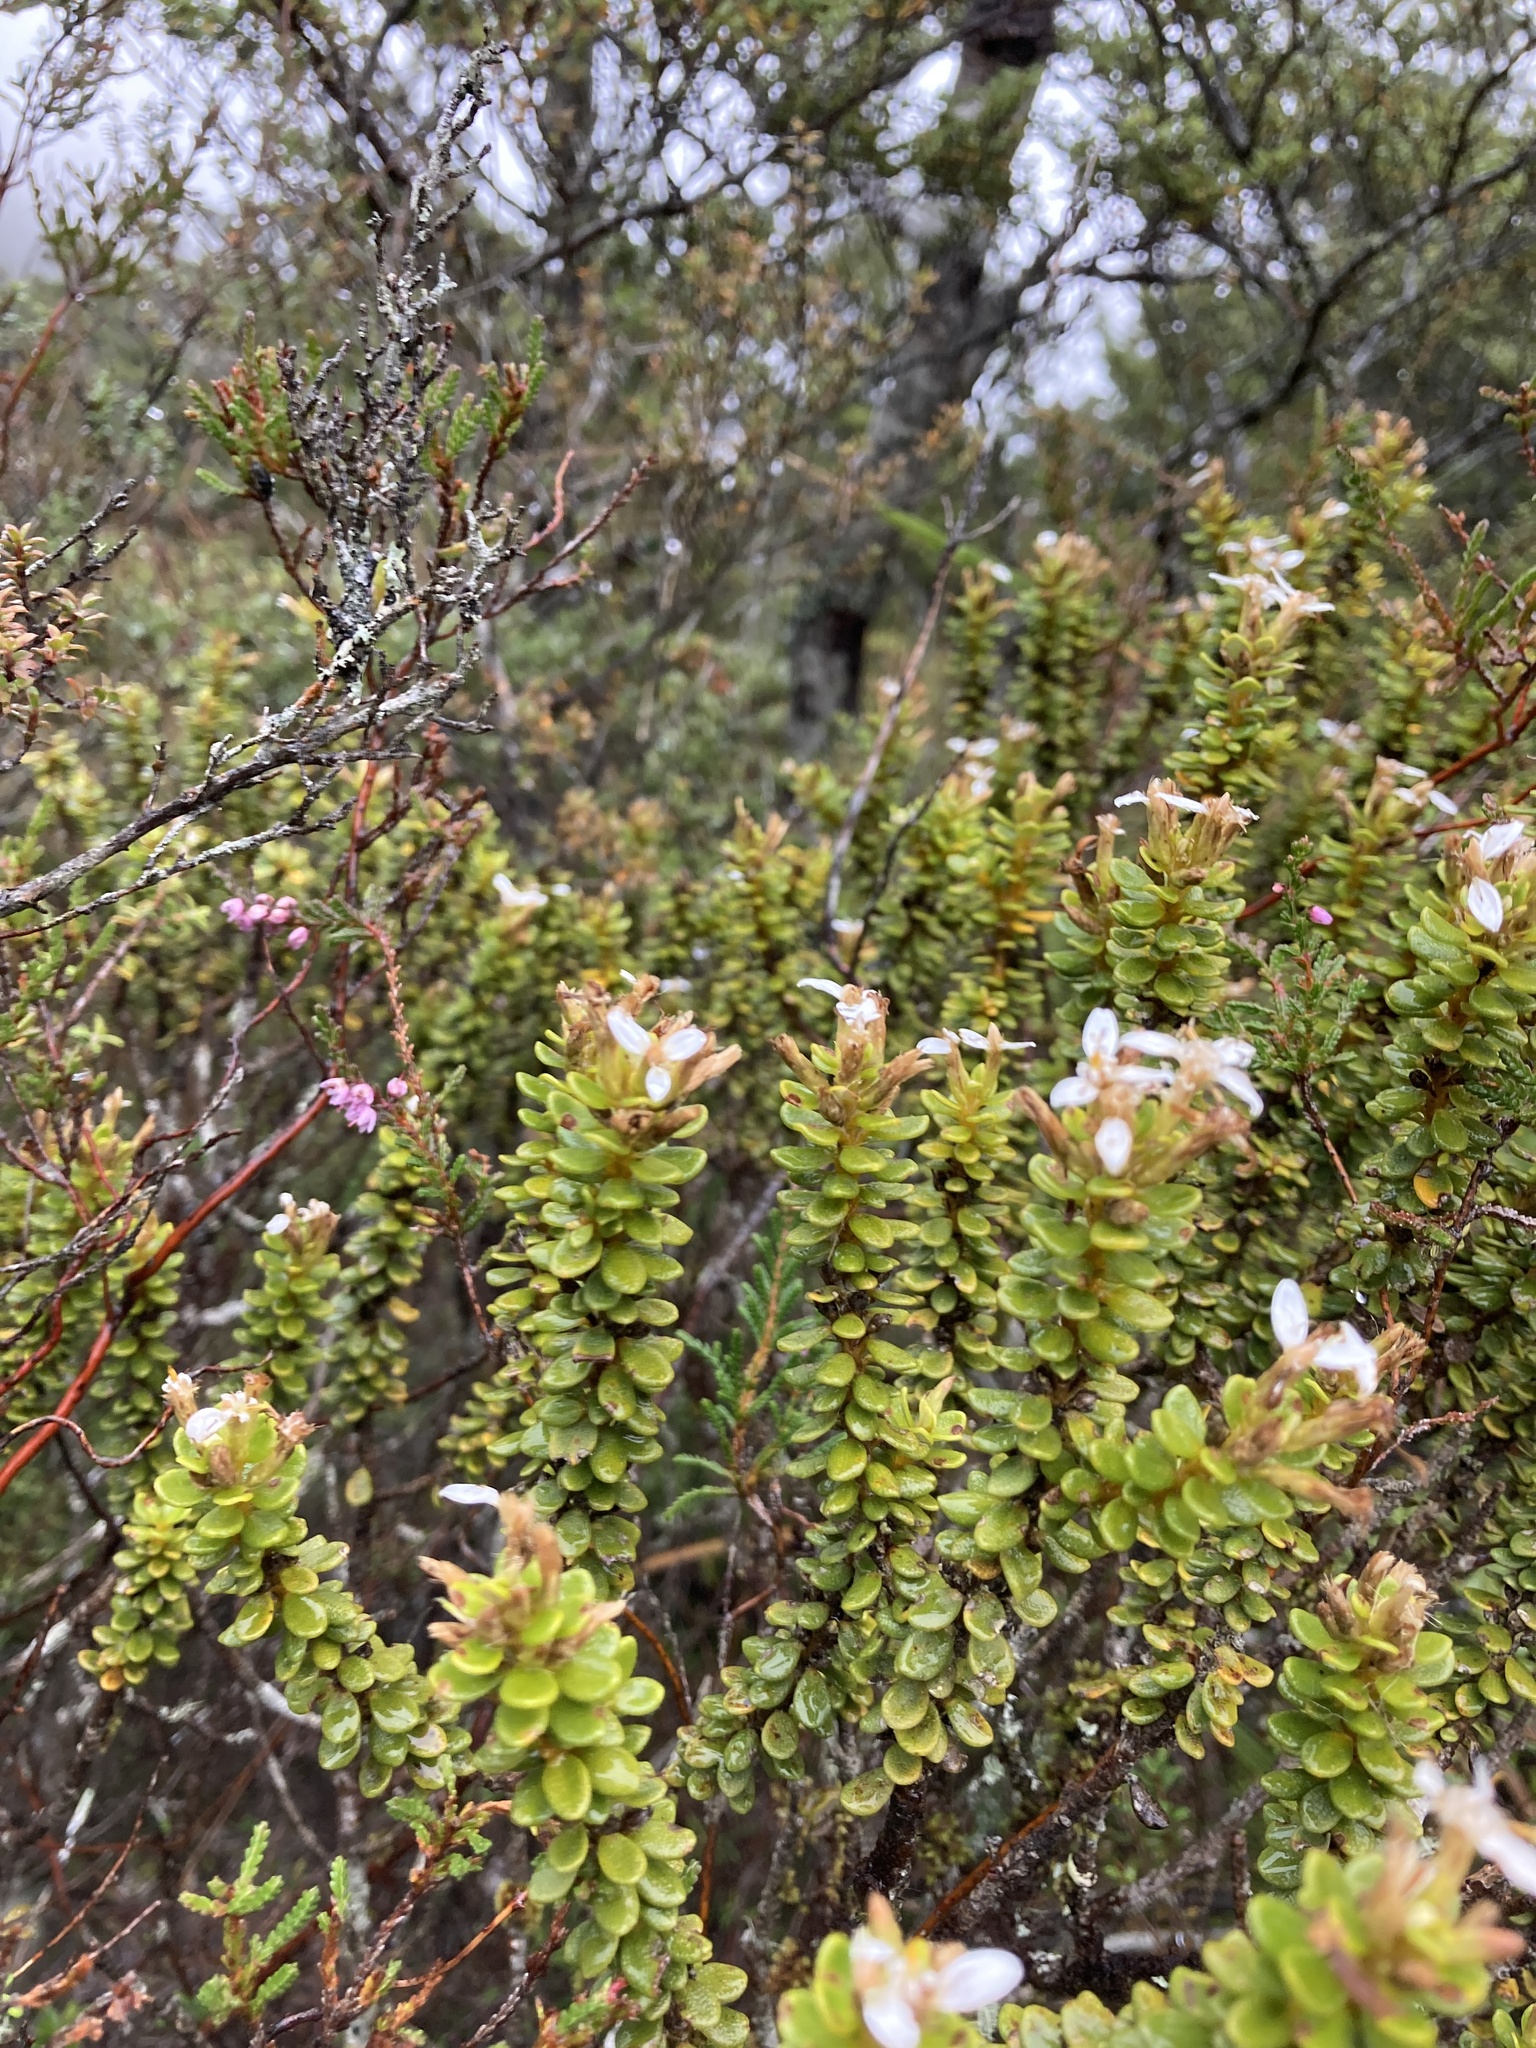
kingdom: Plantae
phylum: Tracheophyta
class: Magnoliopsida
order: Asterales
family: Asteraceae
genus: Olearia
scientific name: Olearia nummularifolia
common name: Sticky daisybush
